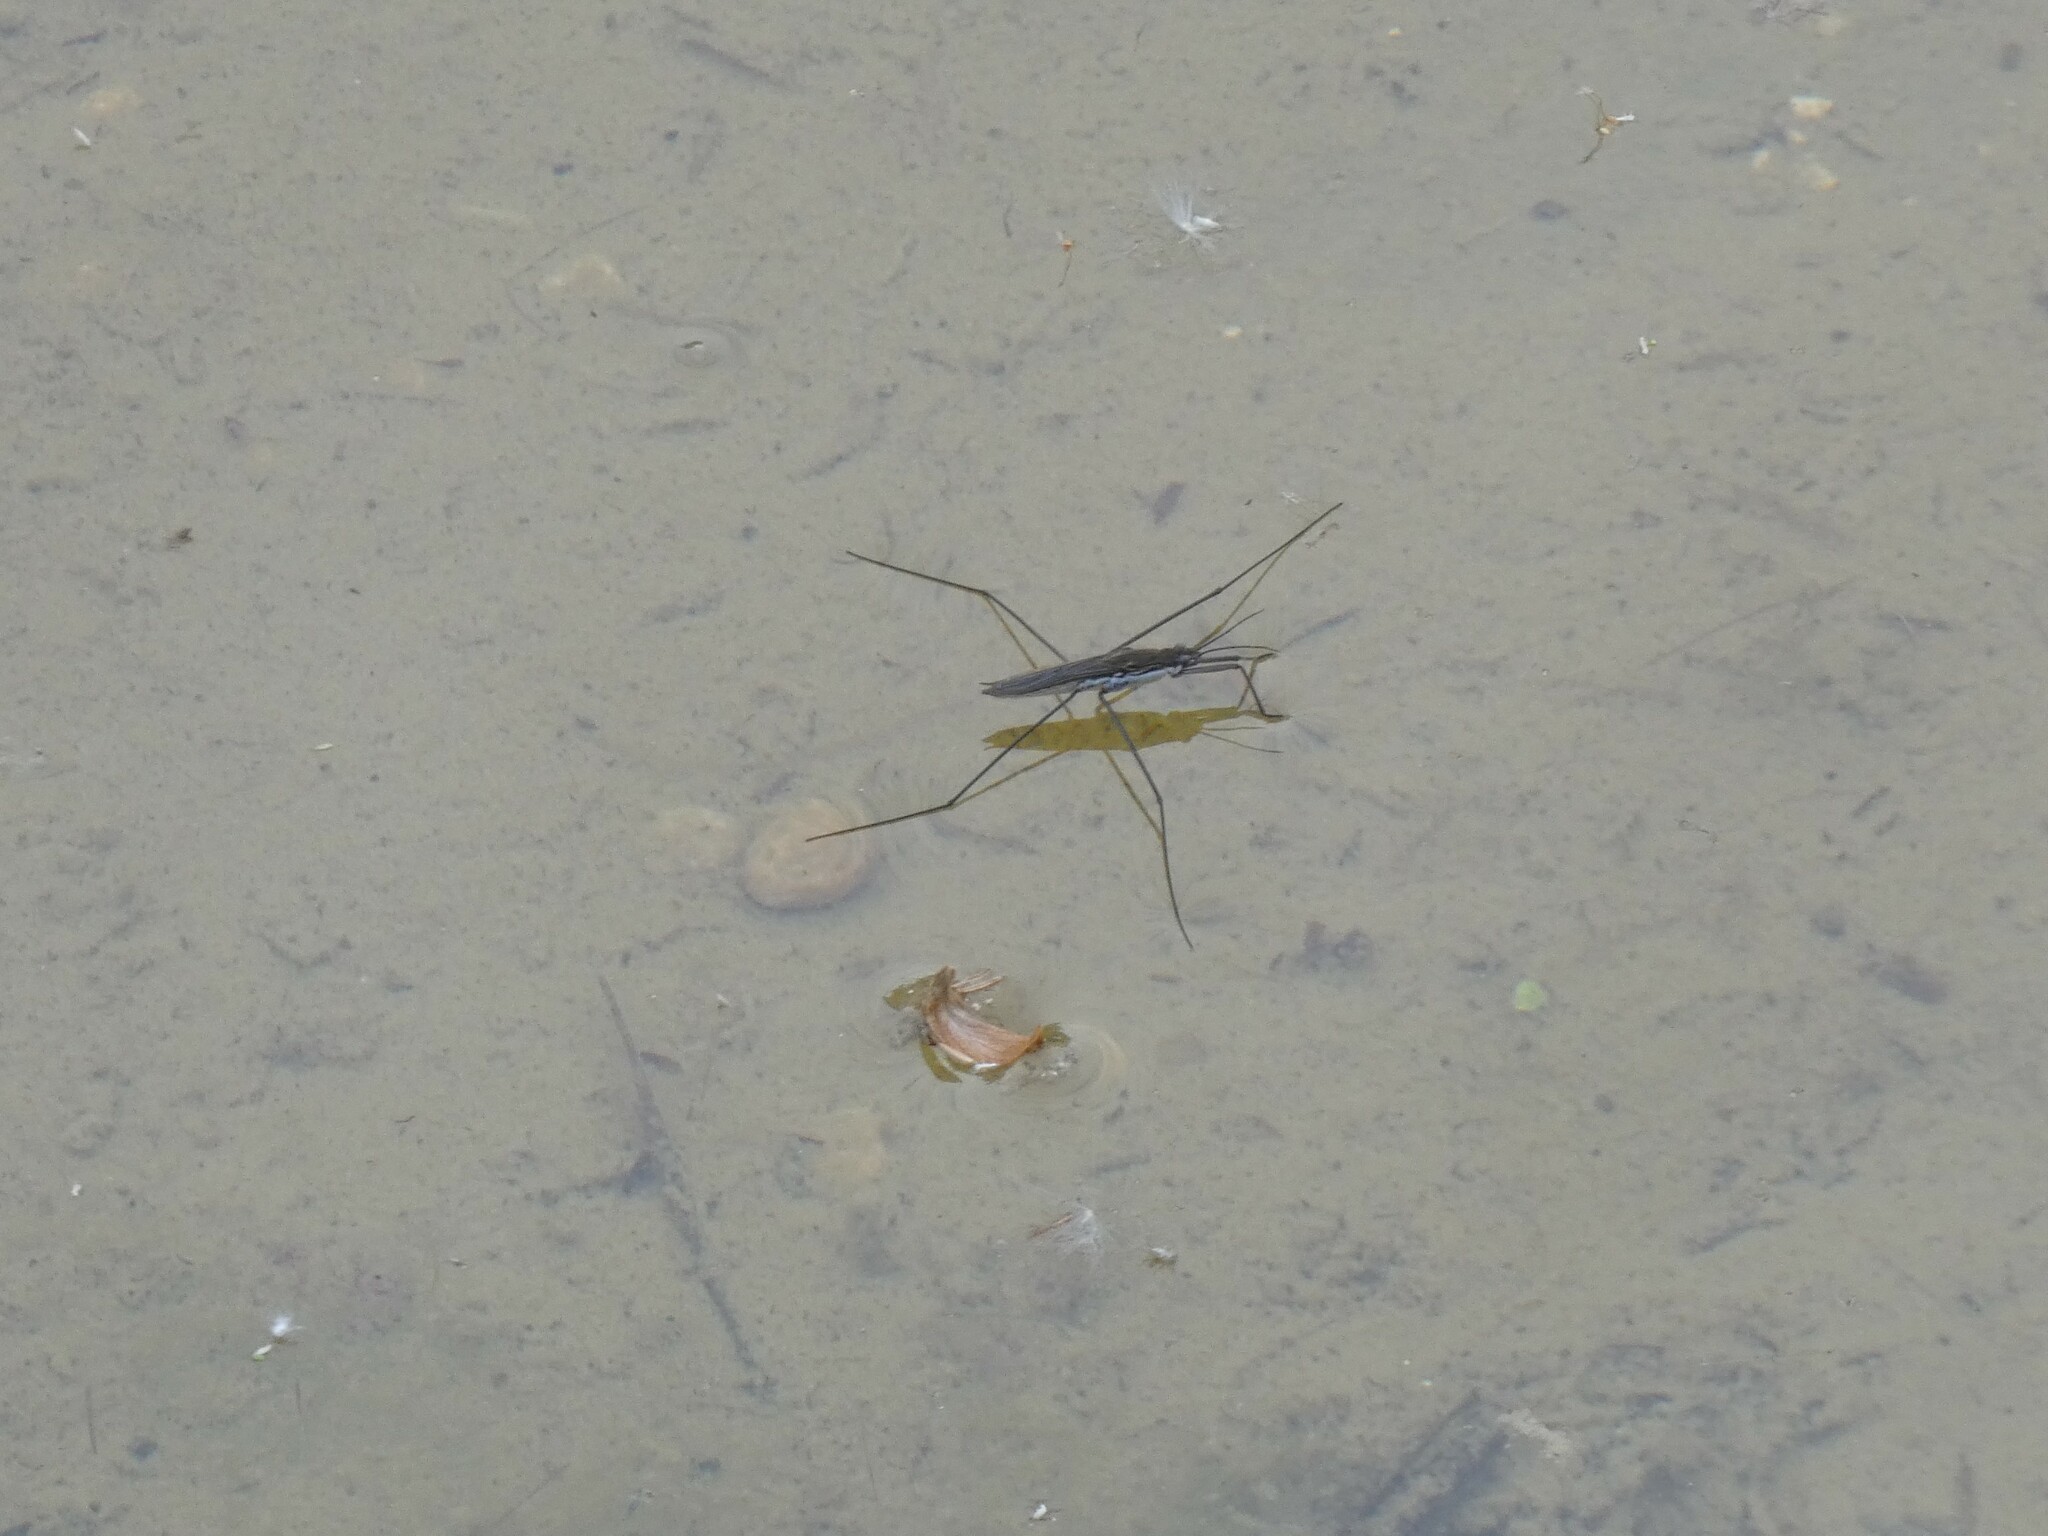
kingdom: Animalia
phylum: Arthropoda
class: Insecta
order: Hemiptera
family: Gerridae
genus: Aquarius
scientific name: Aquarius paludum
